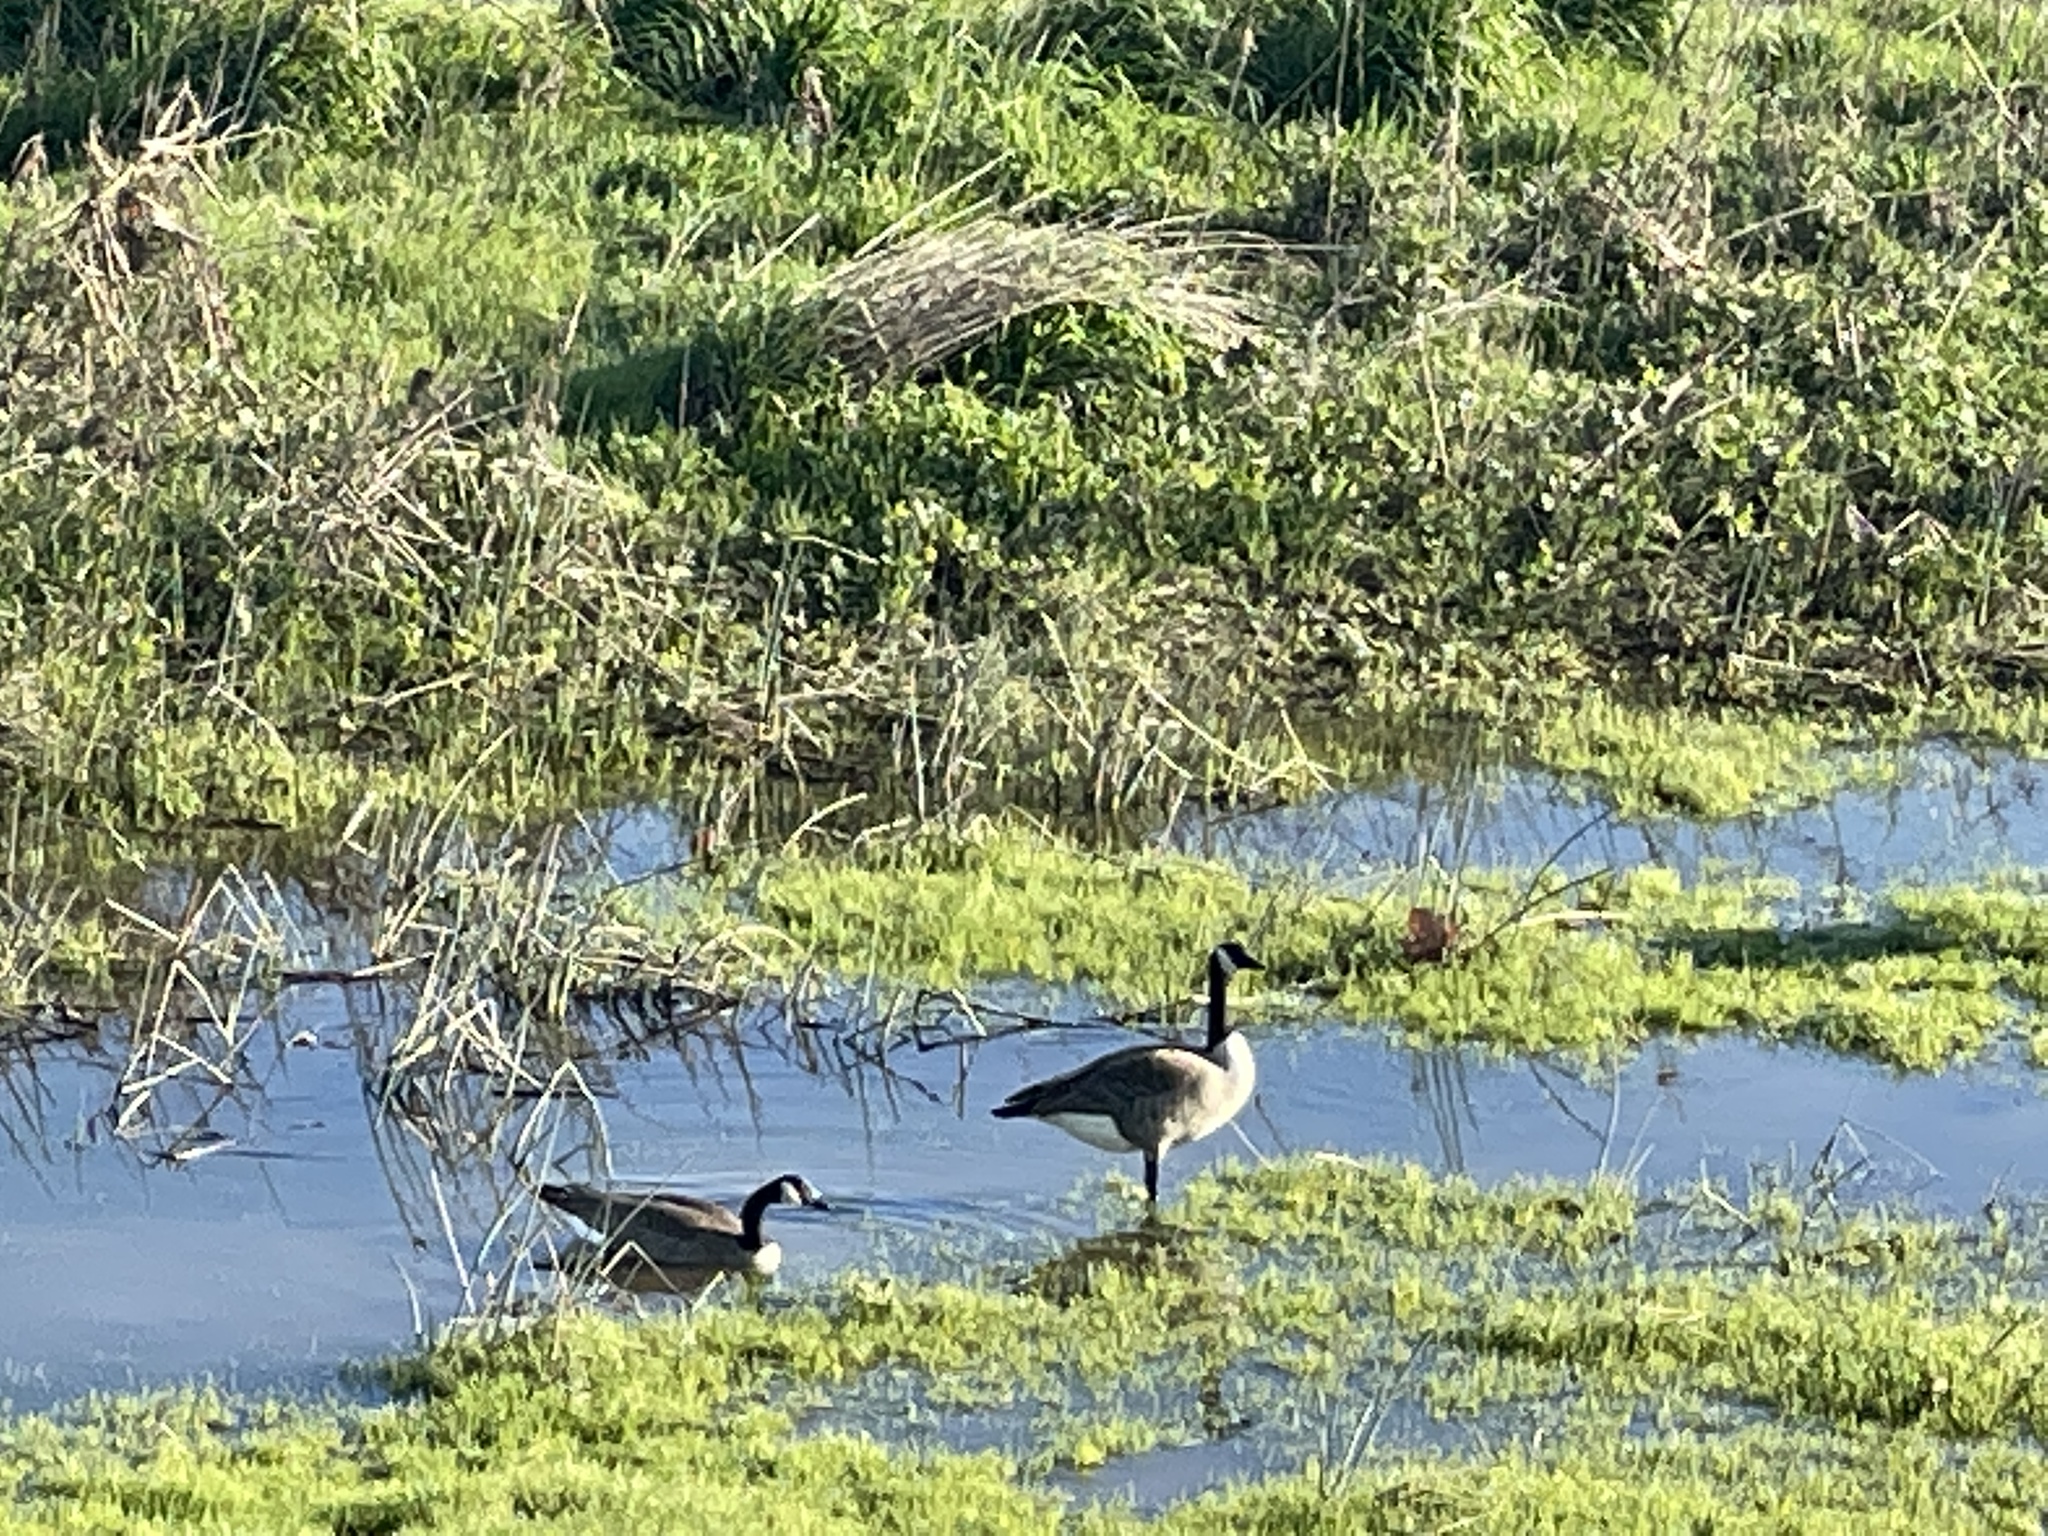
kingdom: Animalia
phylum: Chordata
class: Aves
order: Anseriformes
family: Anatidae
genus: Branta
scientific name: Branta canadensis
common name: Canada goose
